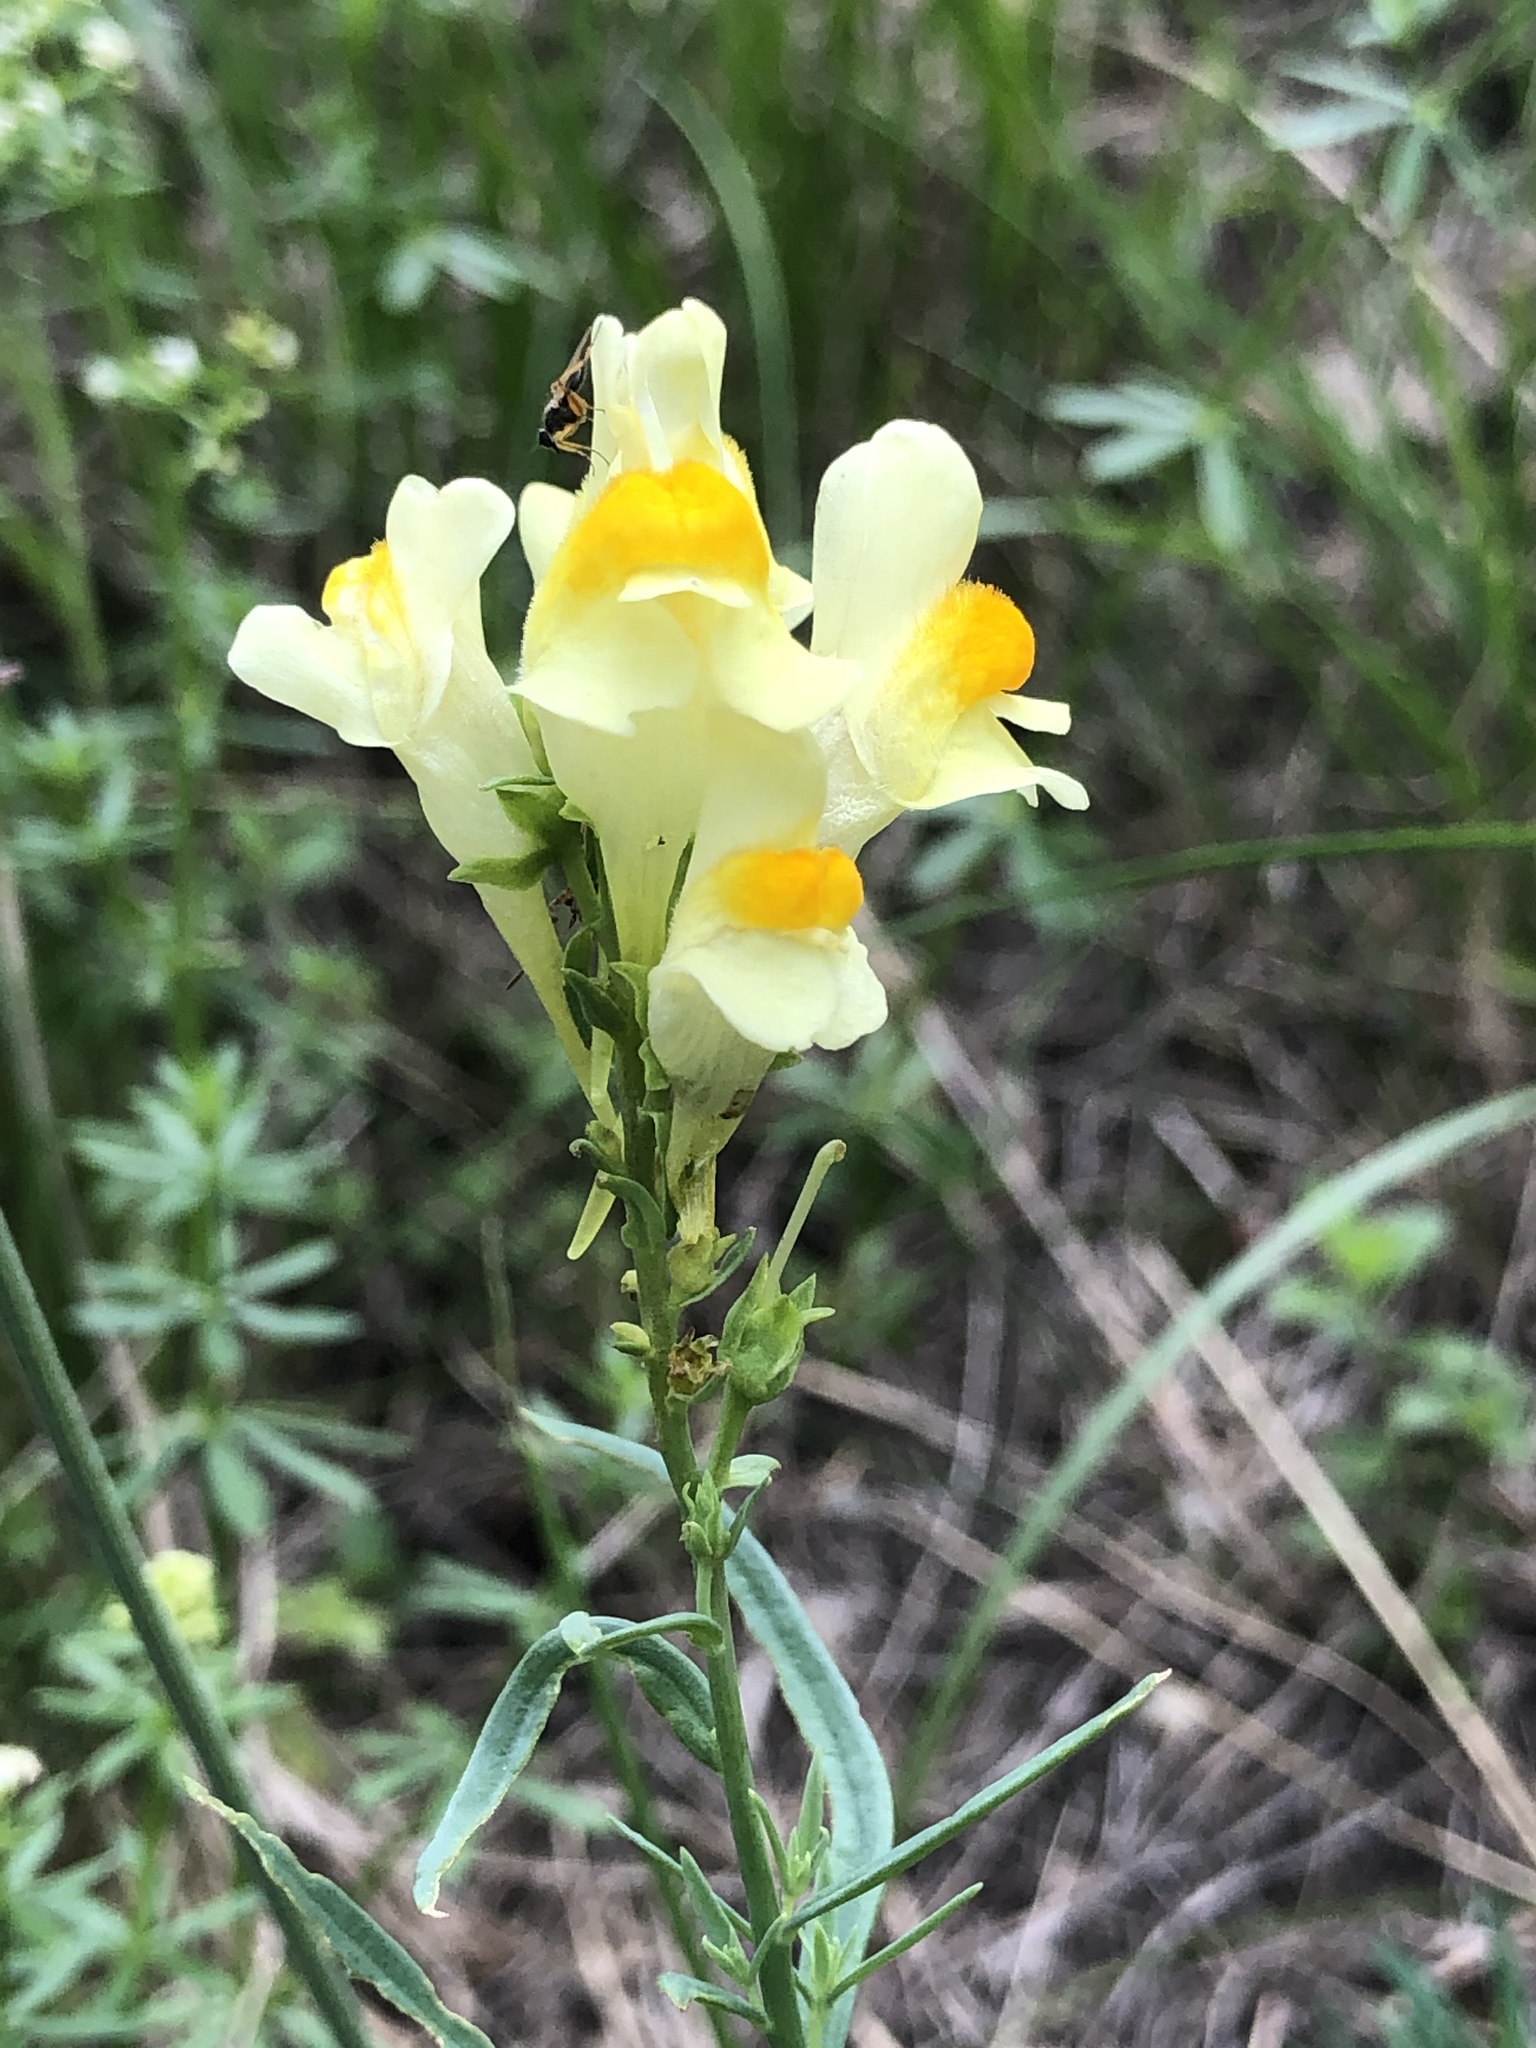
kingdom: Plantae
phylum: Tracheophyta
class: Magnoliopsida
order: Lamiales
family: Plantaginaceae
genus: Linaria
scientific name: Linaria vulgaris
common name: Butter and eggs
